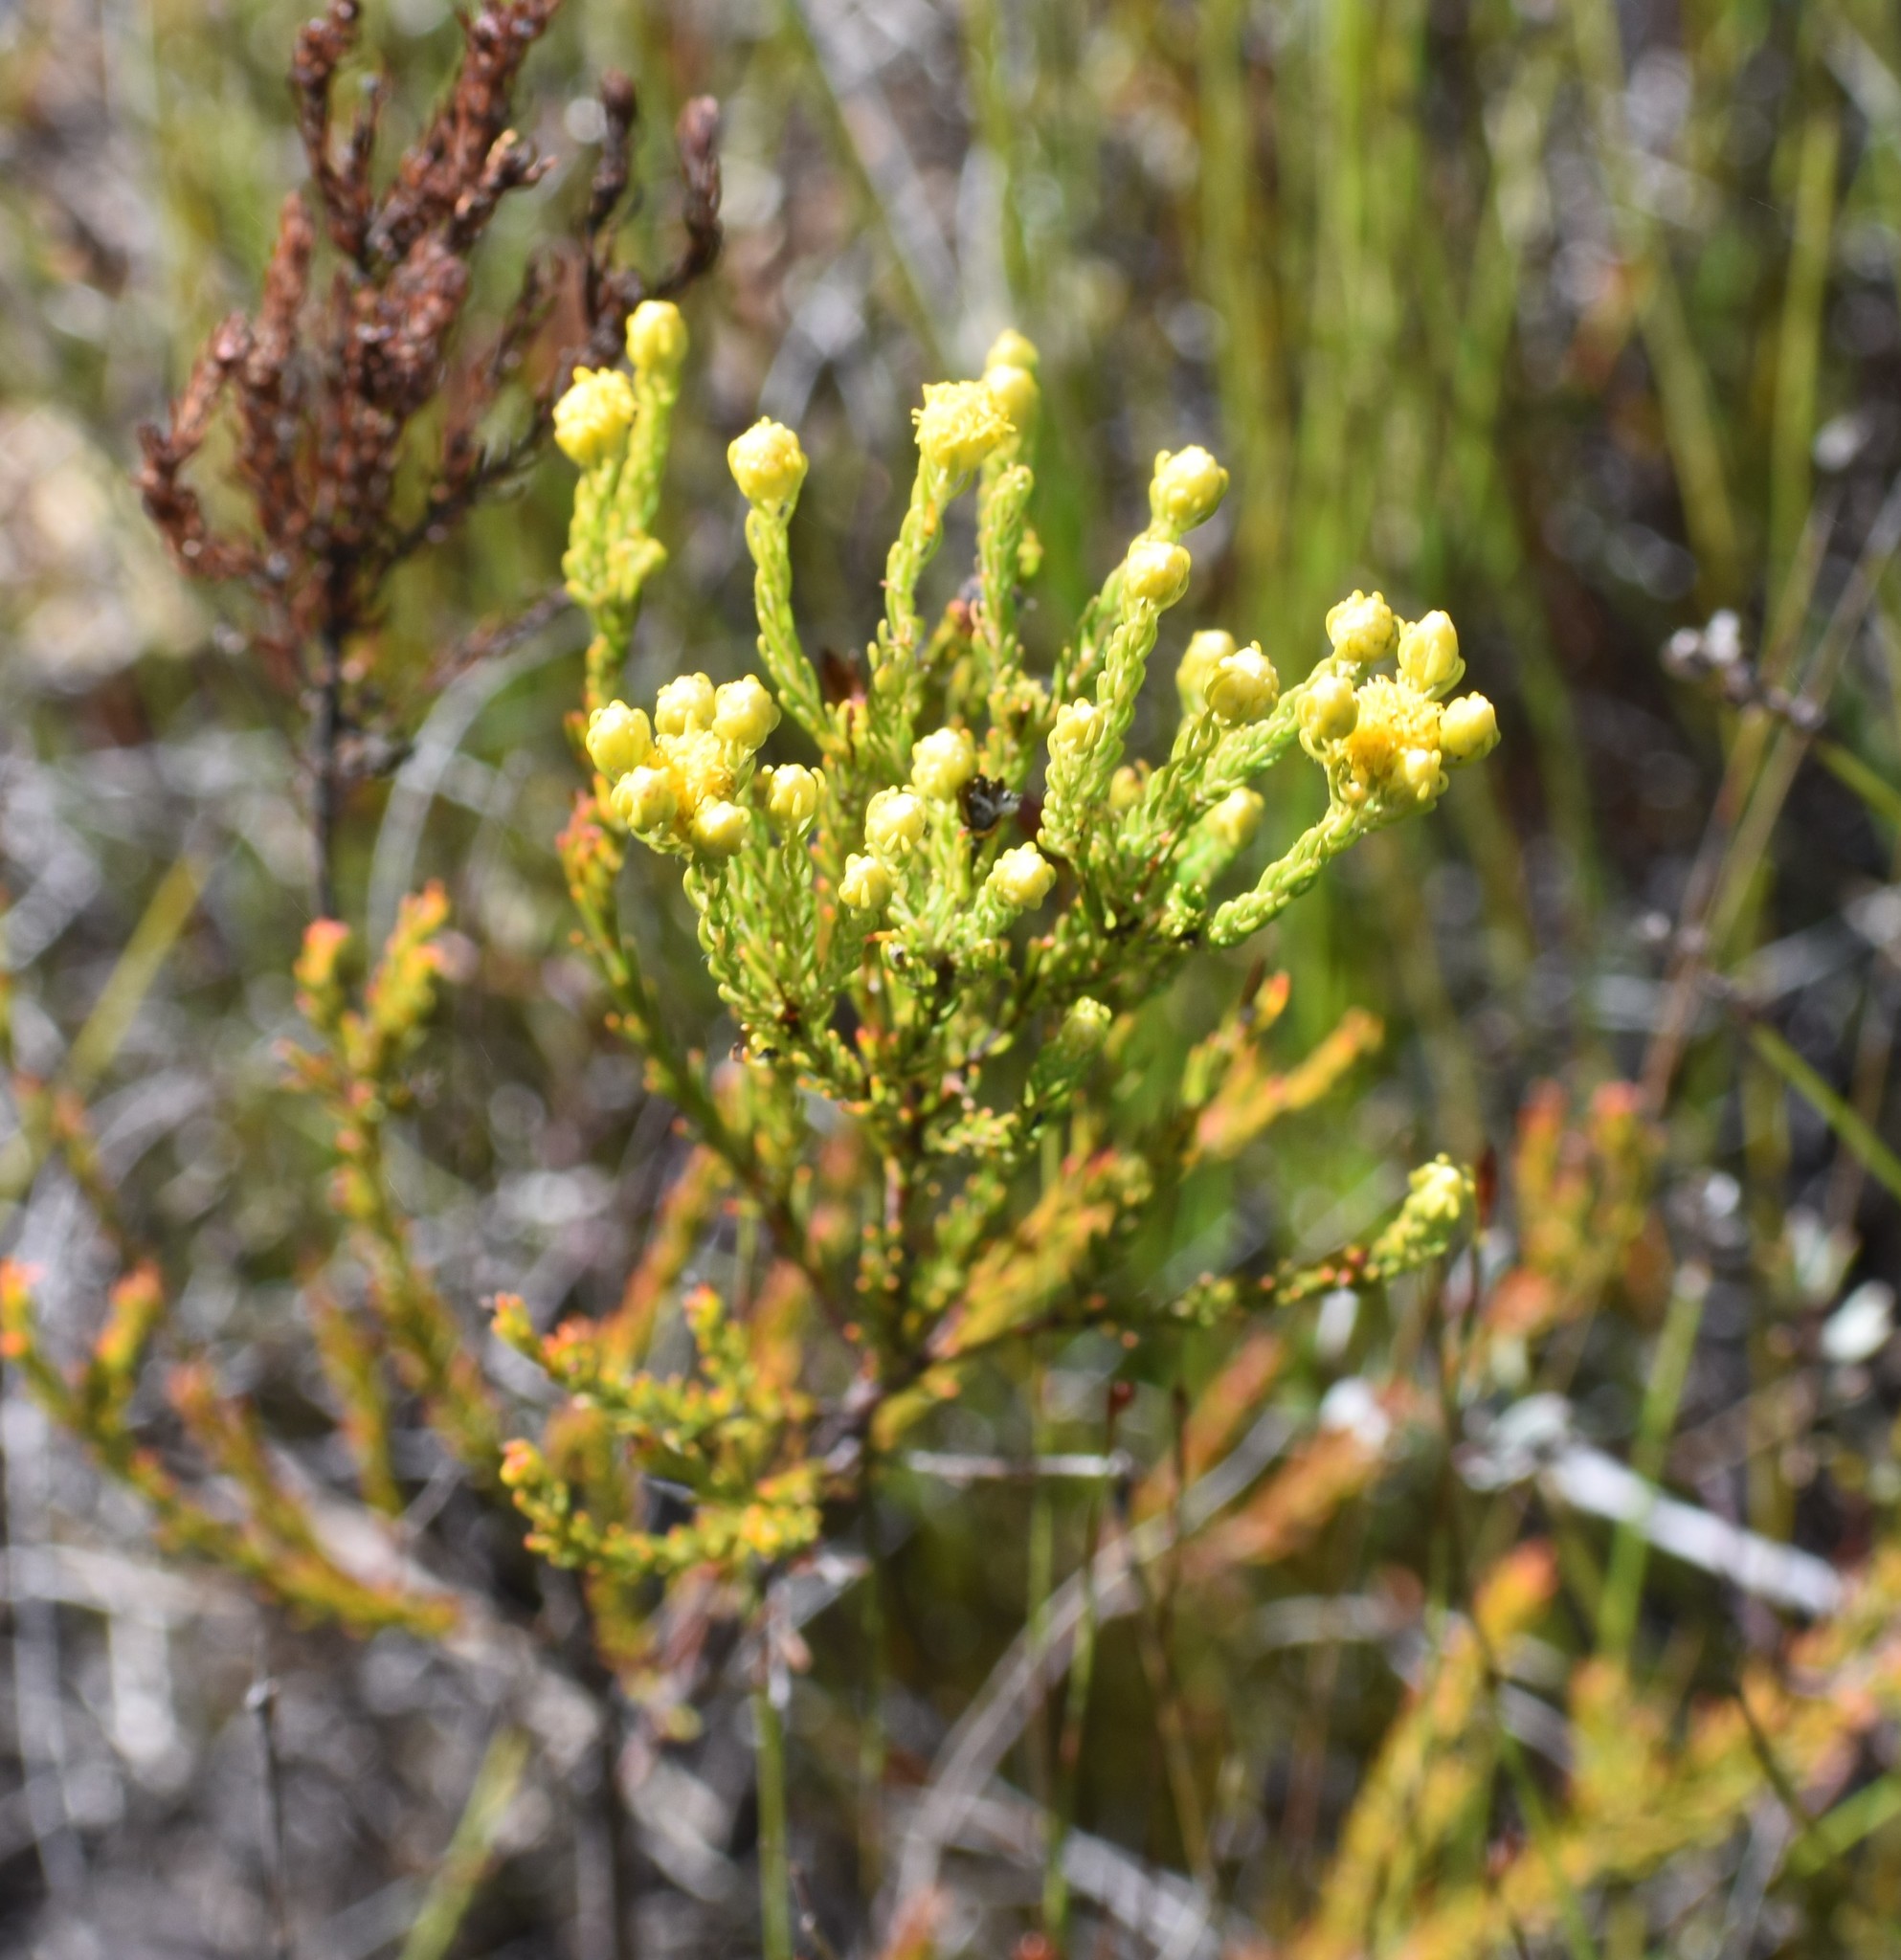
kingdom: Plantae
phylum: Tracheophyta
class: Magnoliopsida
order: Proteales
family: Proteaceae
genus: Leucadendron
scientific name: Leucadendron olens
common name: Yellow conebush
